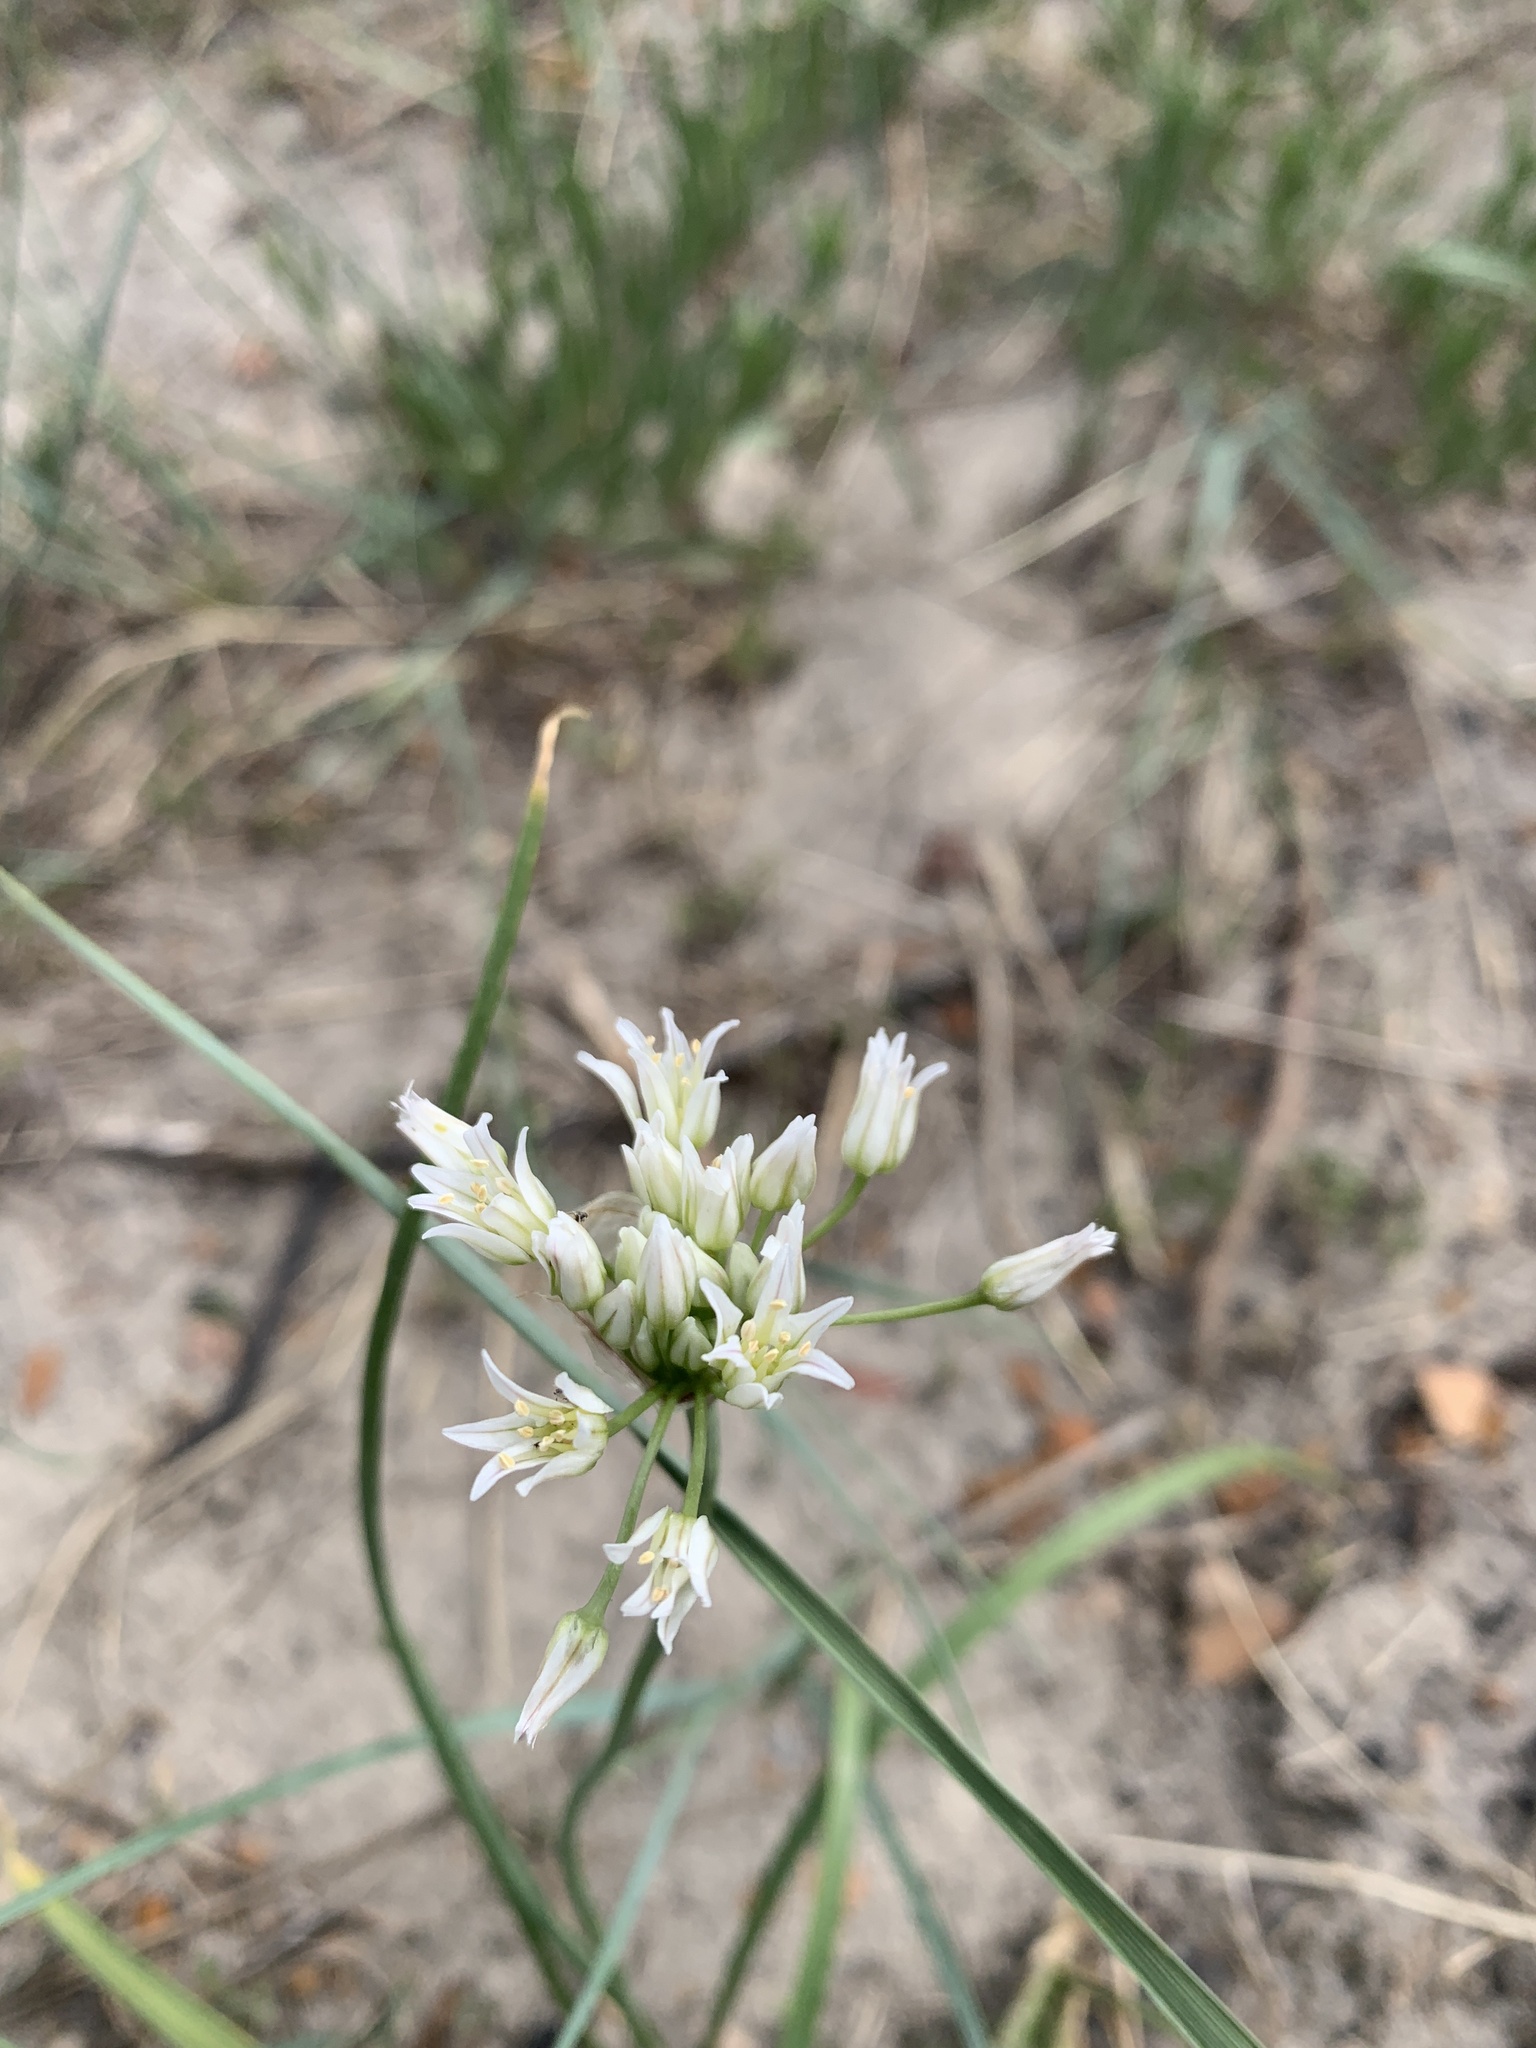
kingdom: Plantae
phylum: Tracheophyta
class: Liliopsida
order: Asparagales
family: Amaryllidaceae
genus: Allium
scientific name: Allium textile
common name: Prairie onion
